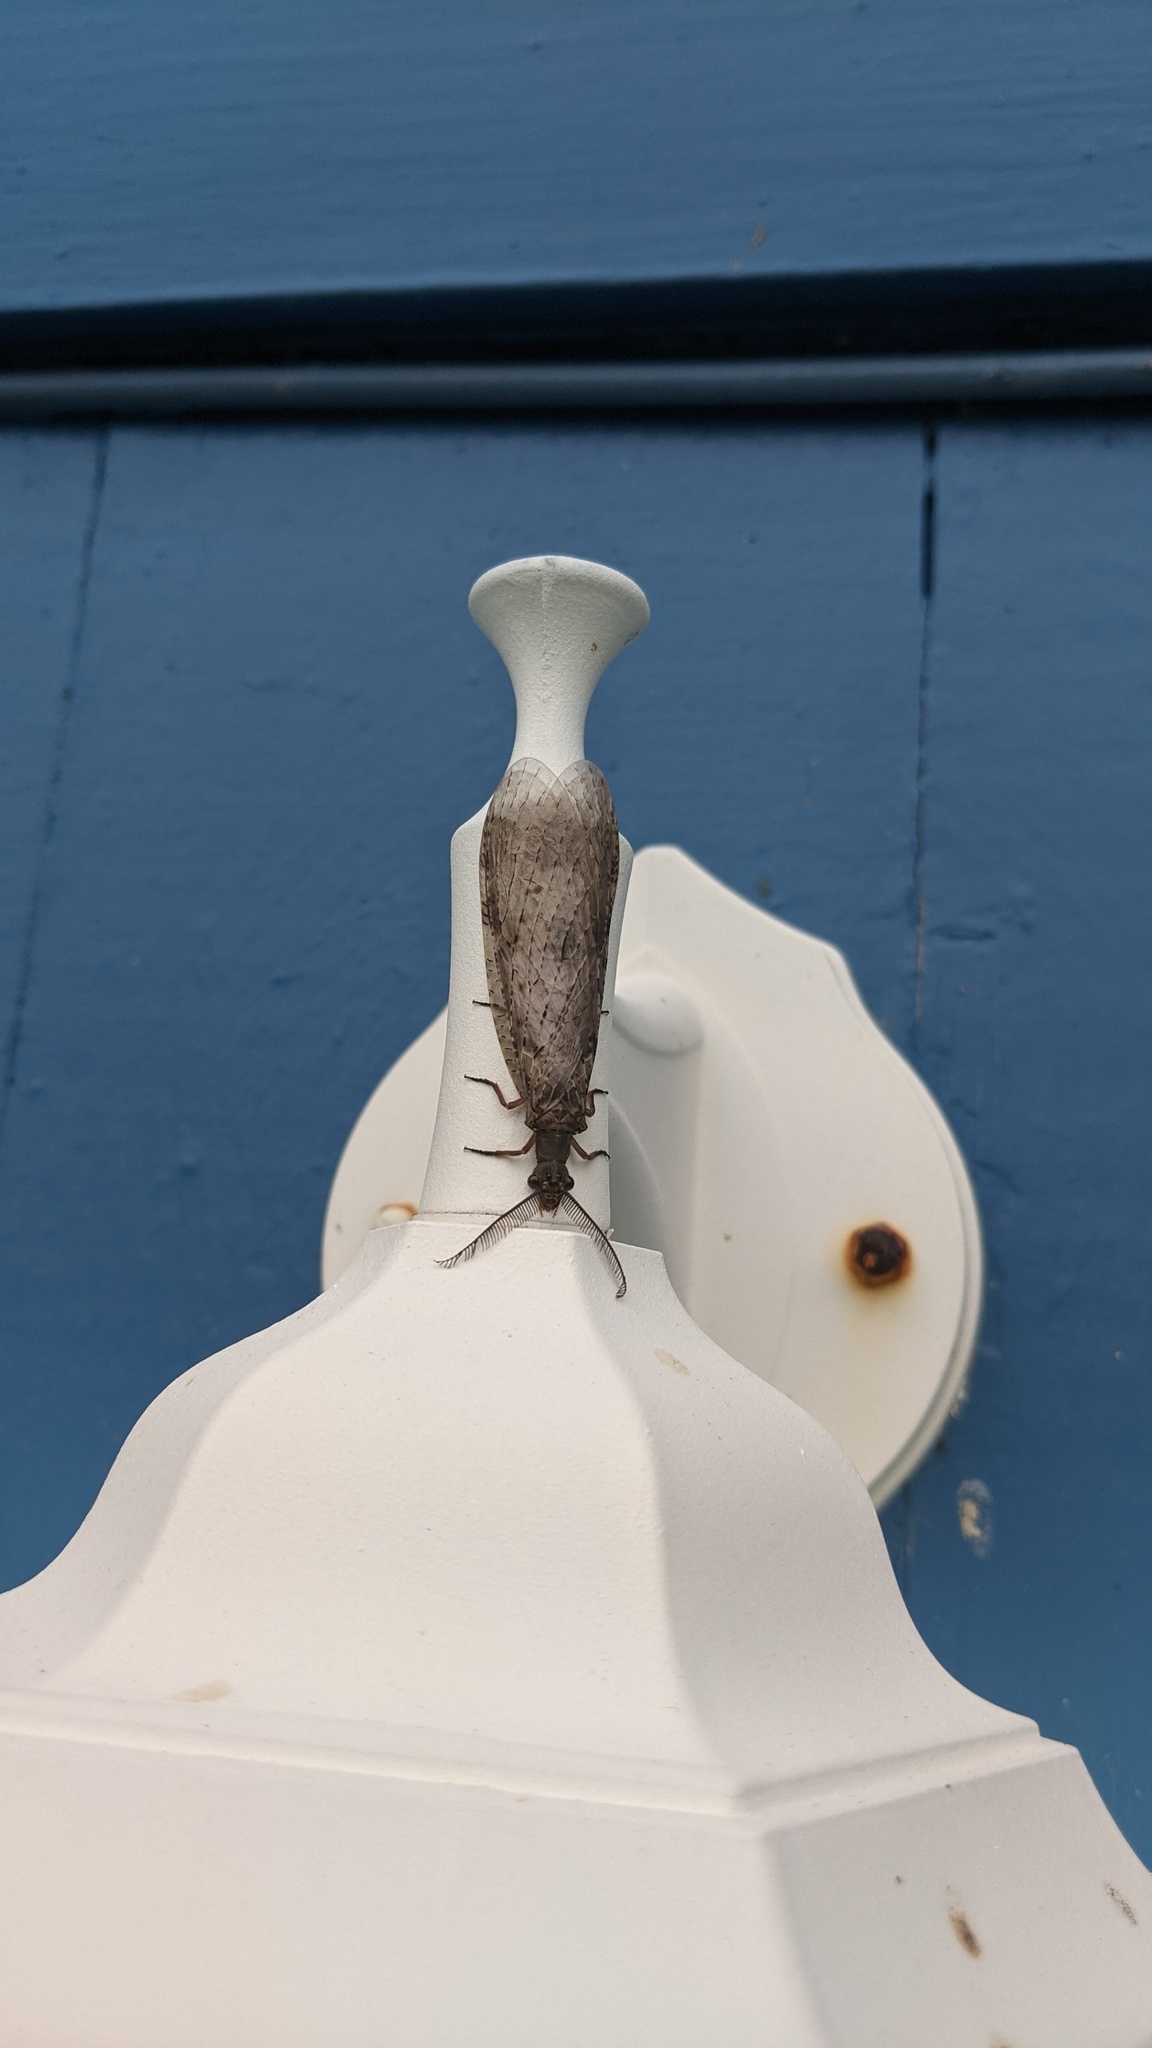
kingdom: Animalia
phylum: Arthropoda
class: Insecta
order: Megaloptera
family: Corydalidae
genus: Chauliodes
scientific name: Chauliodes pectinicornis
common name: Summer fishfly
